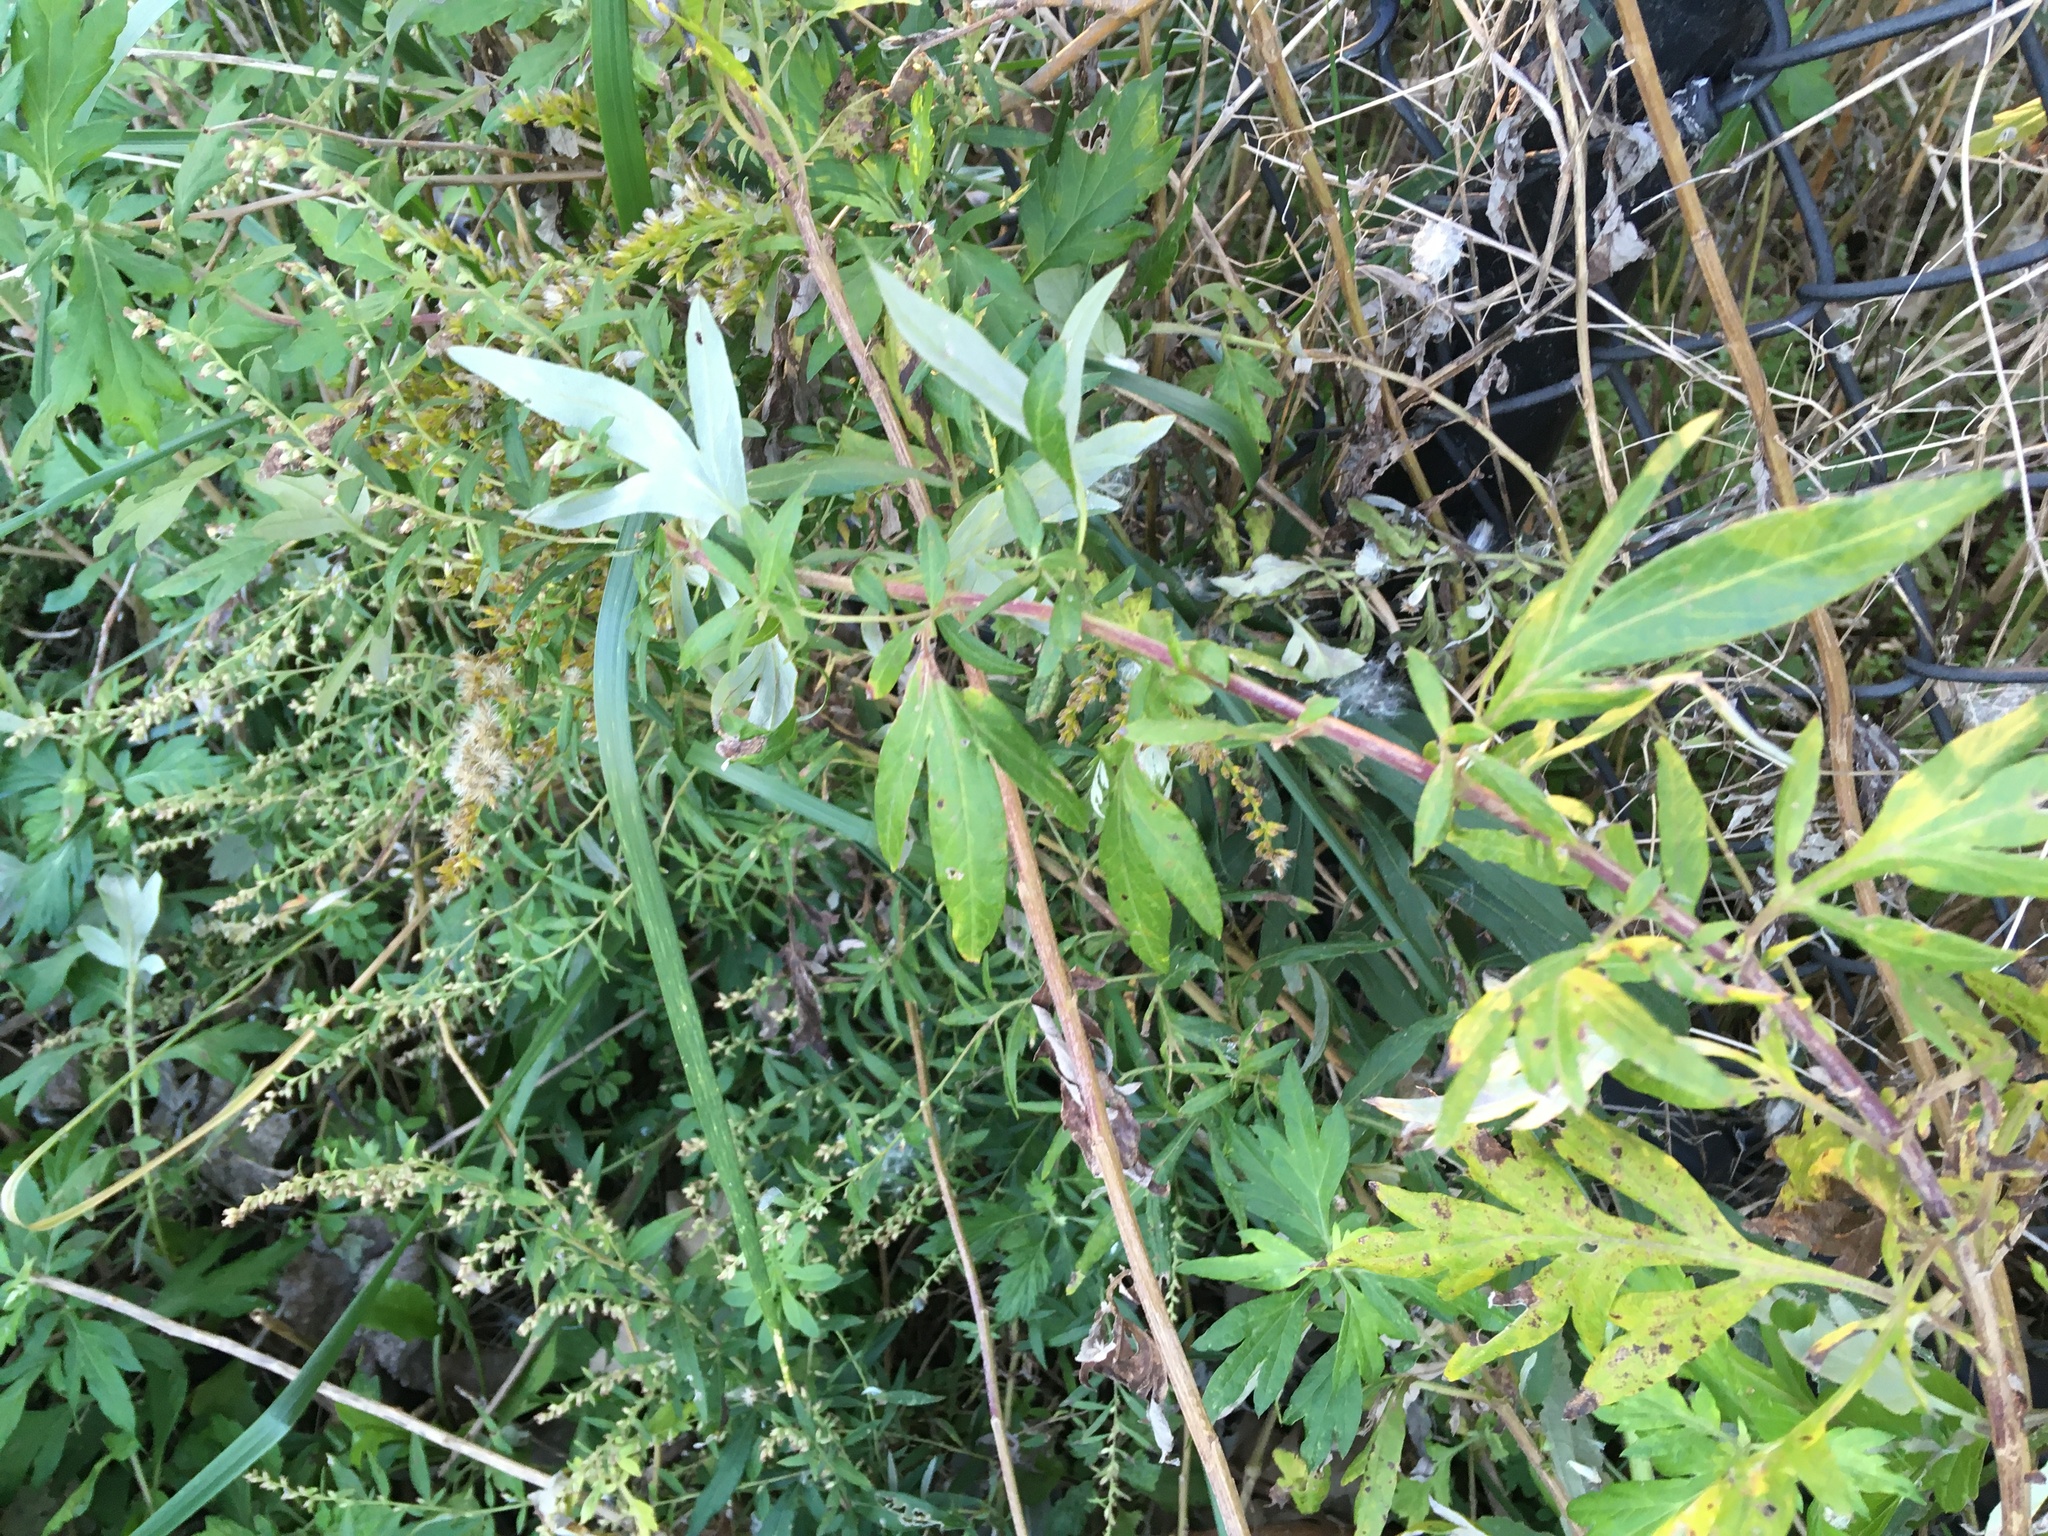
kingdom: Plantae
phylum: Tracheophyta
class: Magnoliopsida
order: Asterales
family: Asteraceae
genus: Artemisia
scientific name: Artemisia vulgaris
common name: Mugwort
